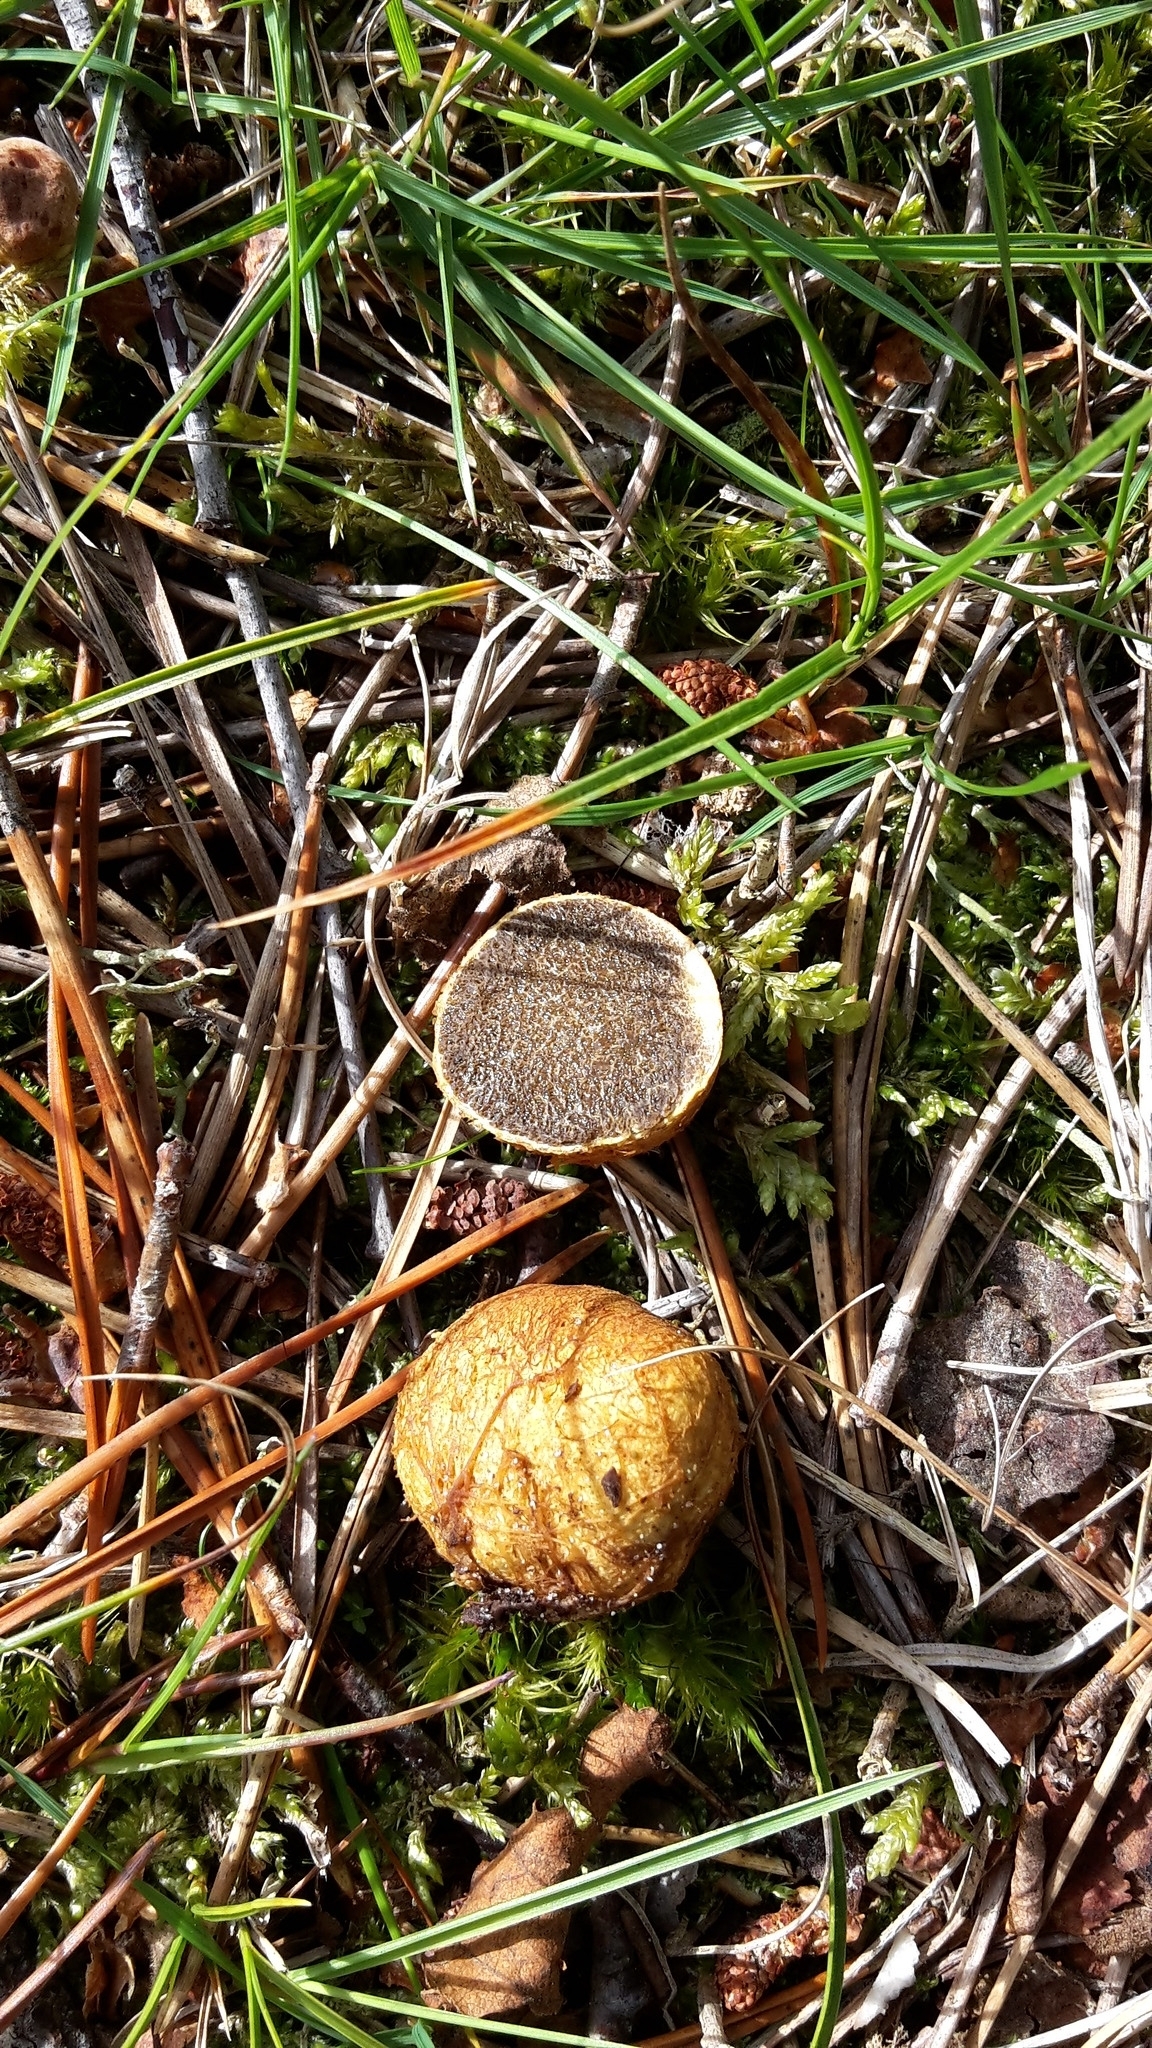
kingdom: Fungi
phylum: Basidiomycota
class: Agaricomycetes
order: Boletales
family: Rhizopogonaceae
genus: Rhizopogon
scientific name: Rhizopogon luteolus
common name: Yellow false truffle
